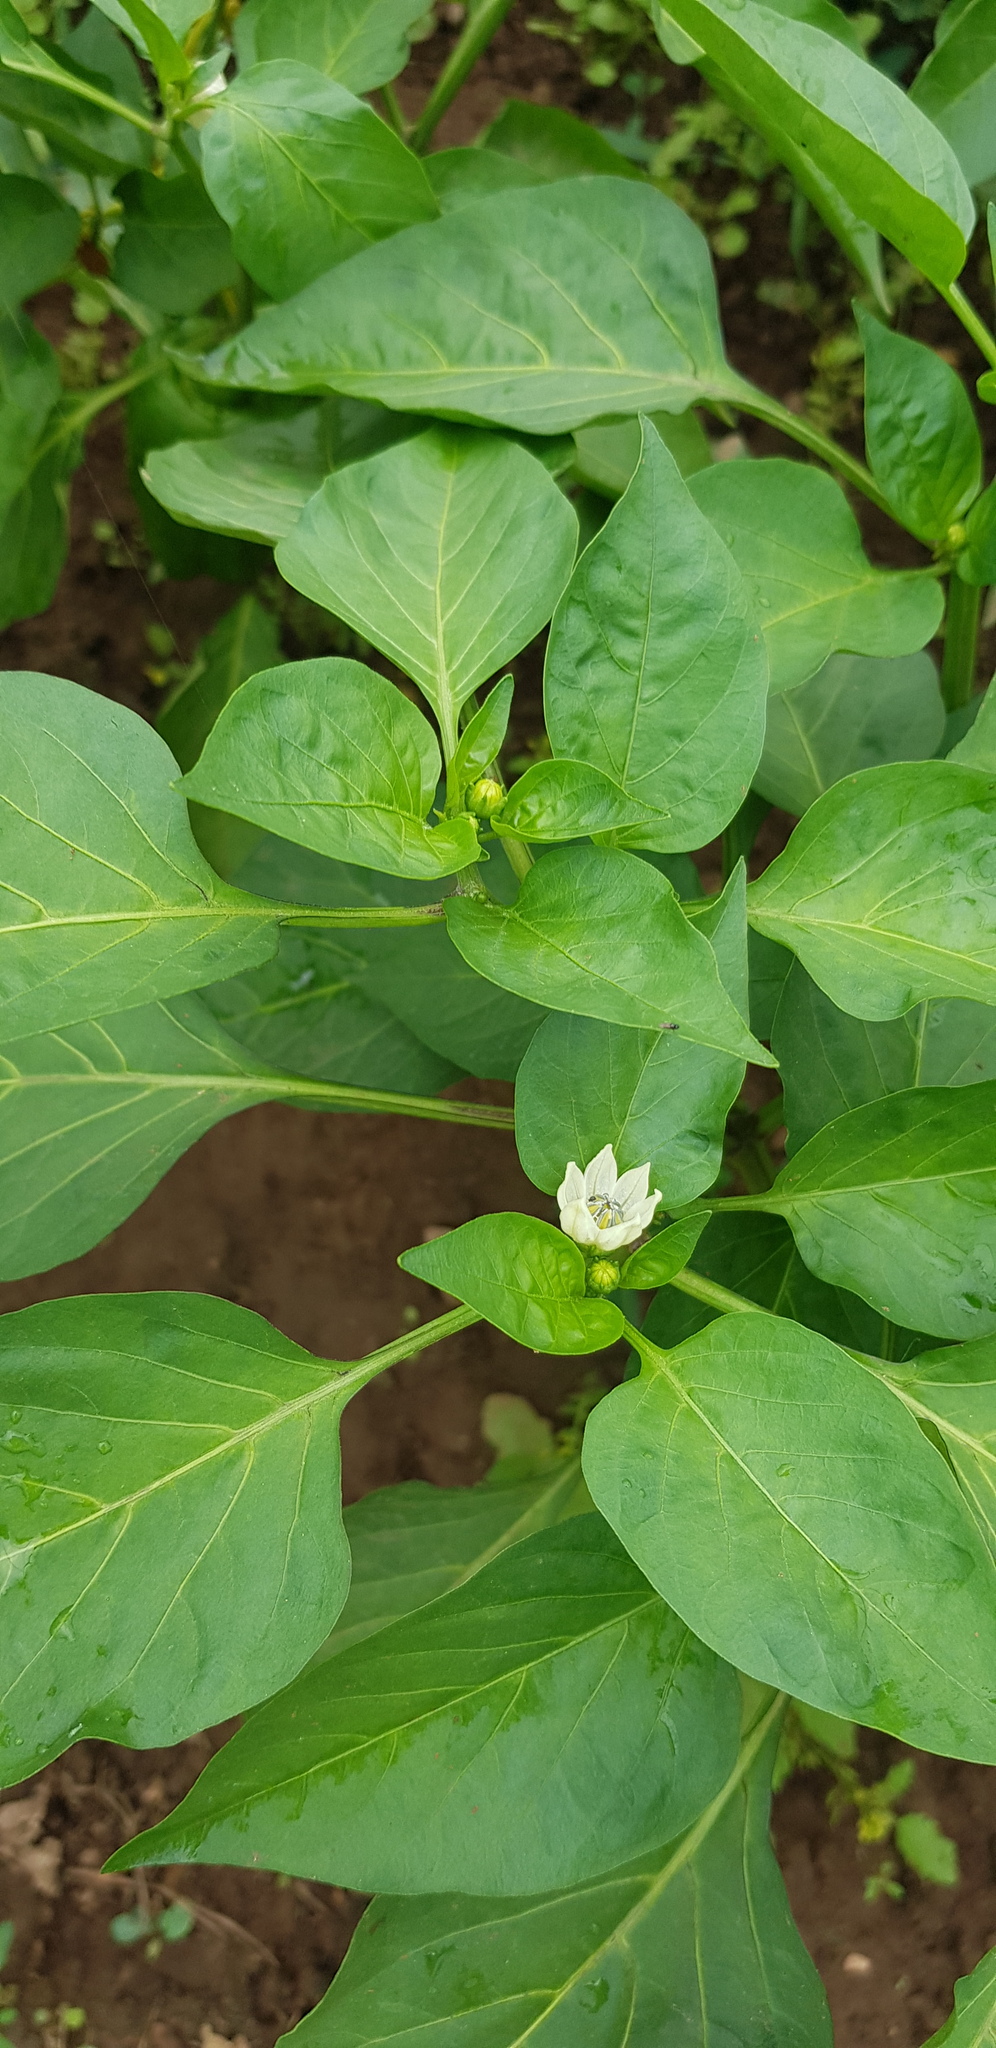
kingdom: Plantae
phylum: Tracheophyta
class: Magnoliopsida
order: Solanales
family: Solanaceae
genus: Capsicum
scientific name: Capsicum annuum
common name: Sweet pepper
